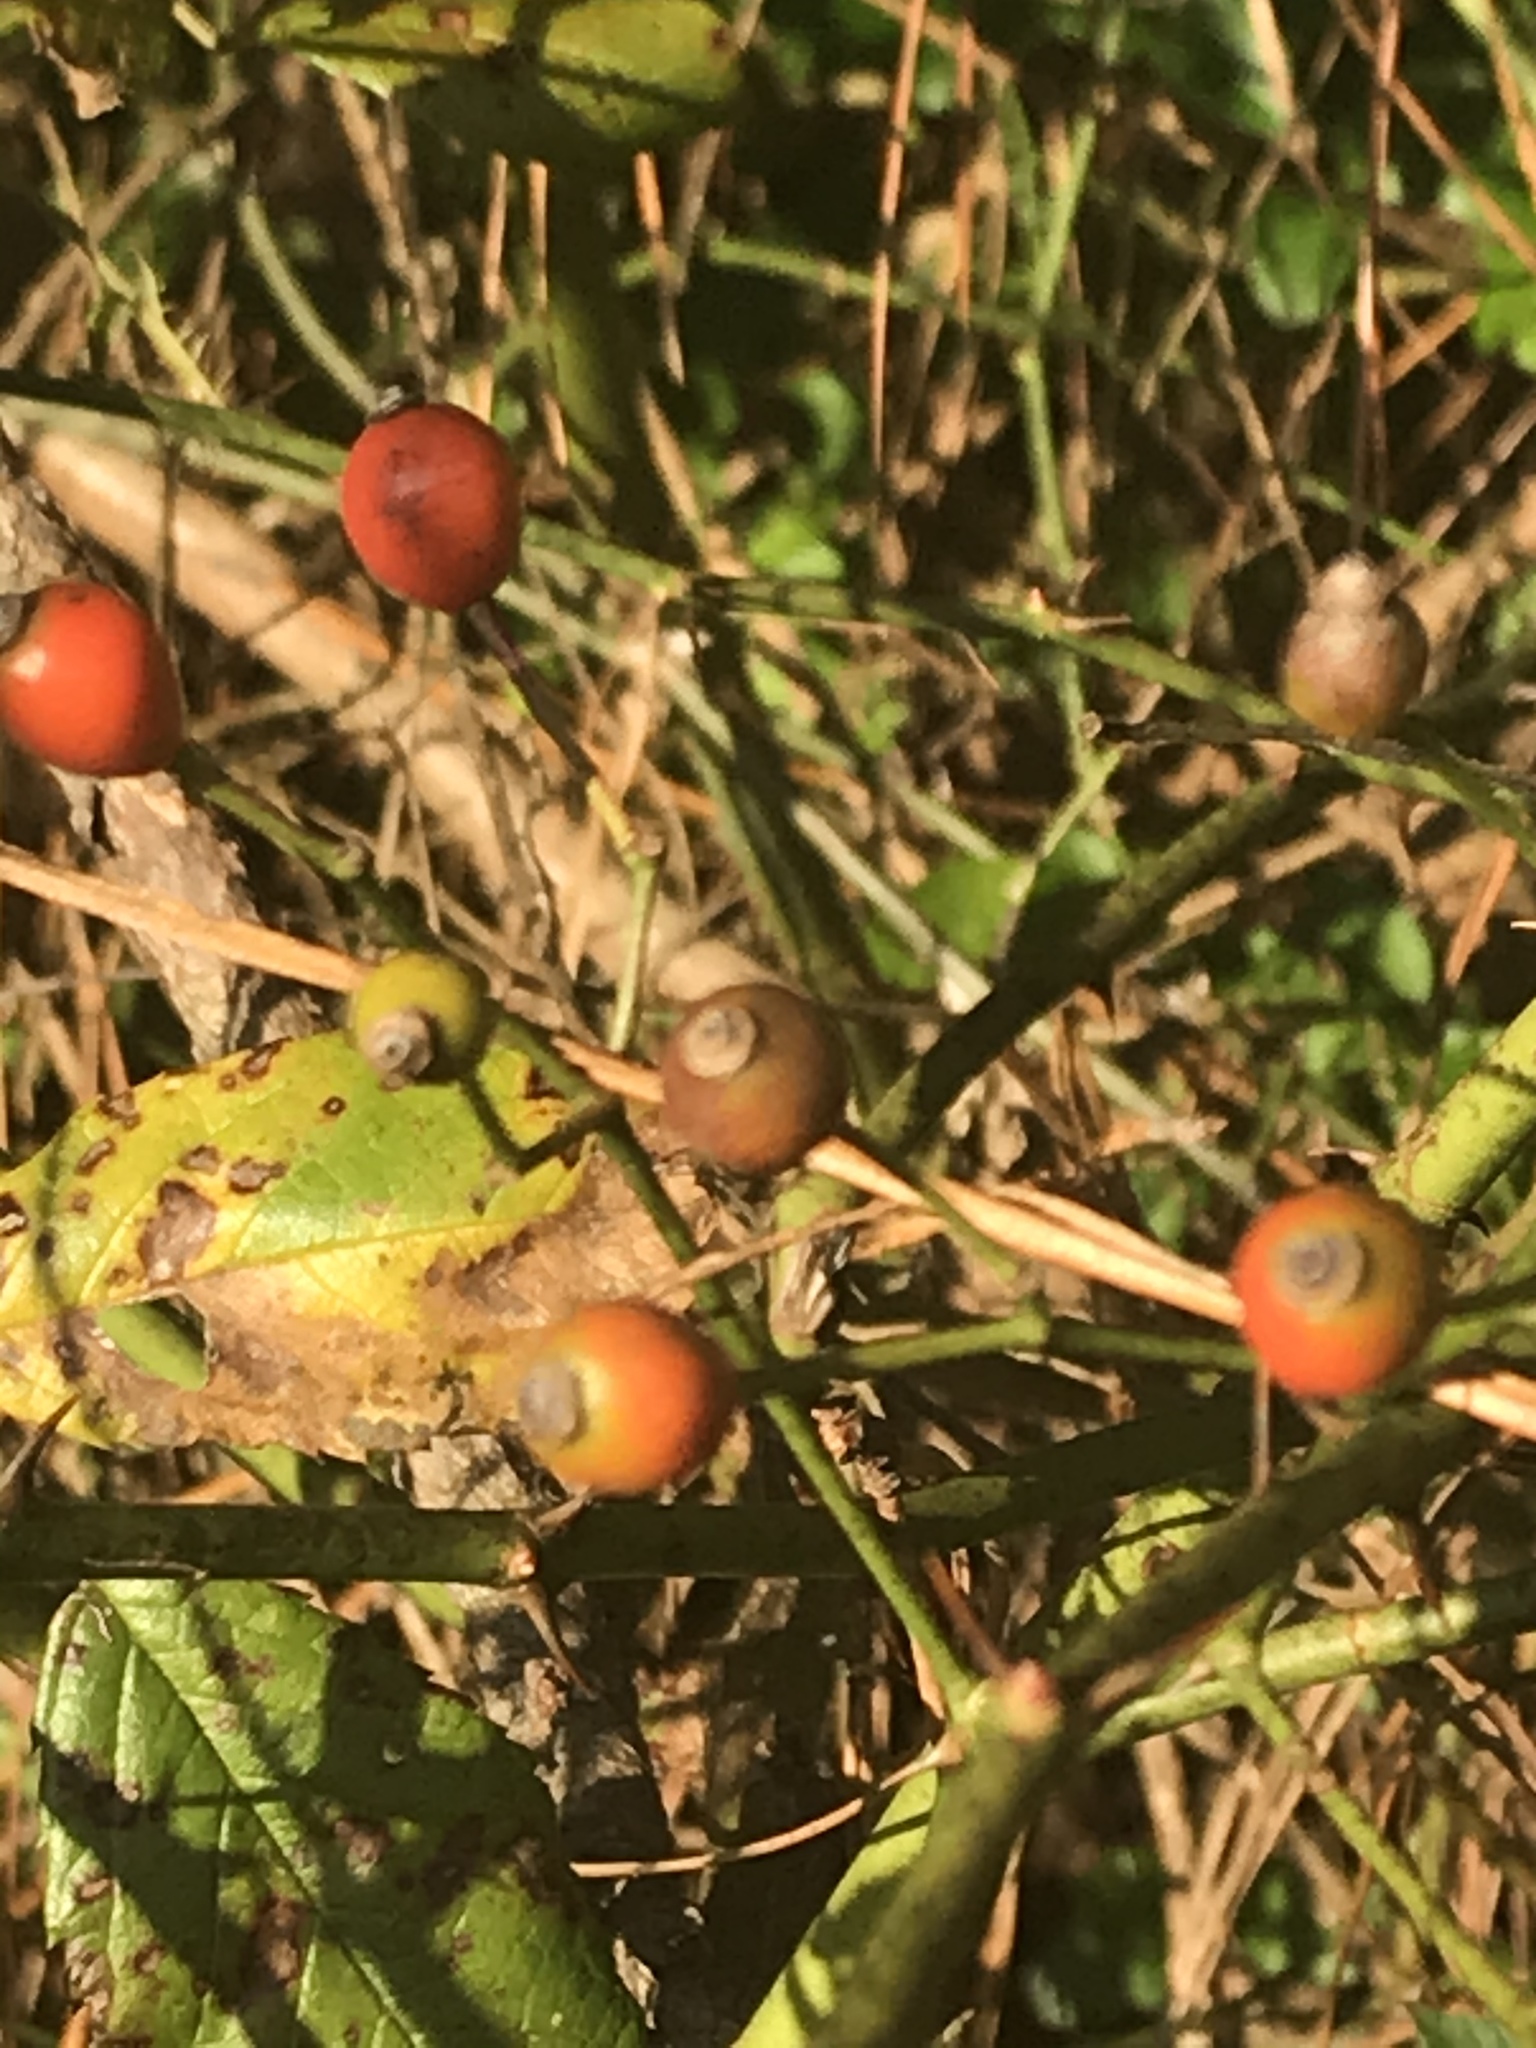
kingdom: Plantae
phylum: Tracheophyta
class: Magnoliopsida
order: Rosales
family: Rosaceae
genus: Rosa
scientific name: Rosa multiflora
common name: Multiflora rose
